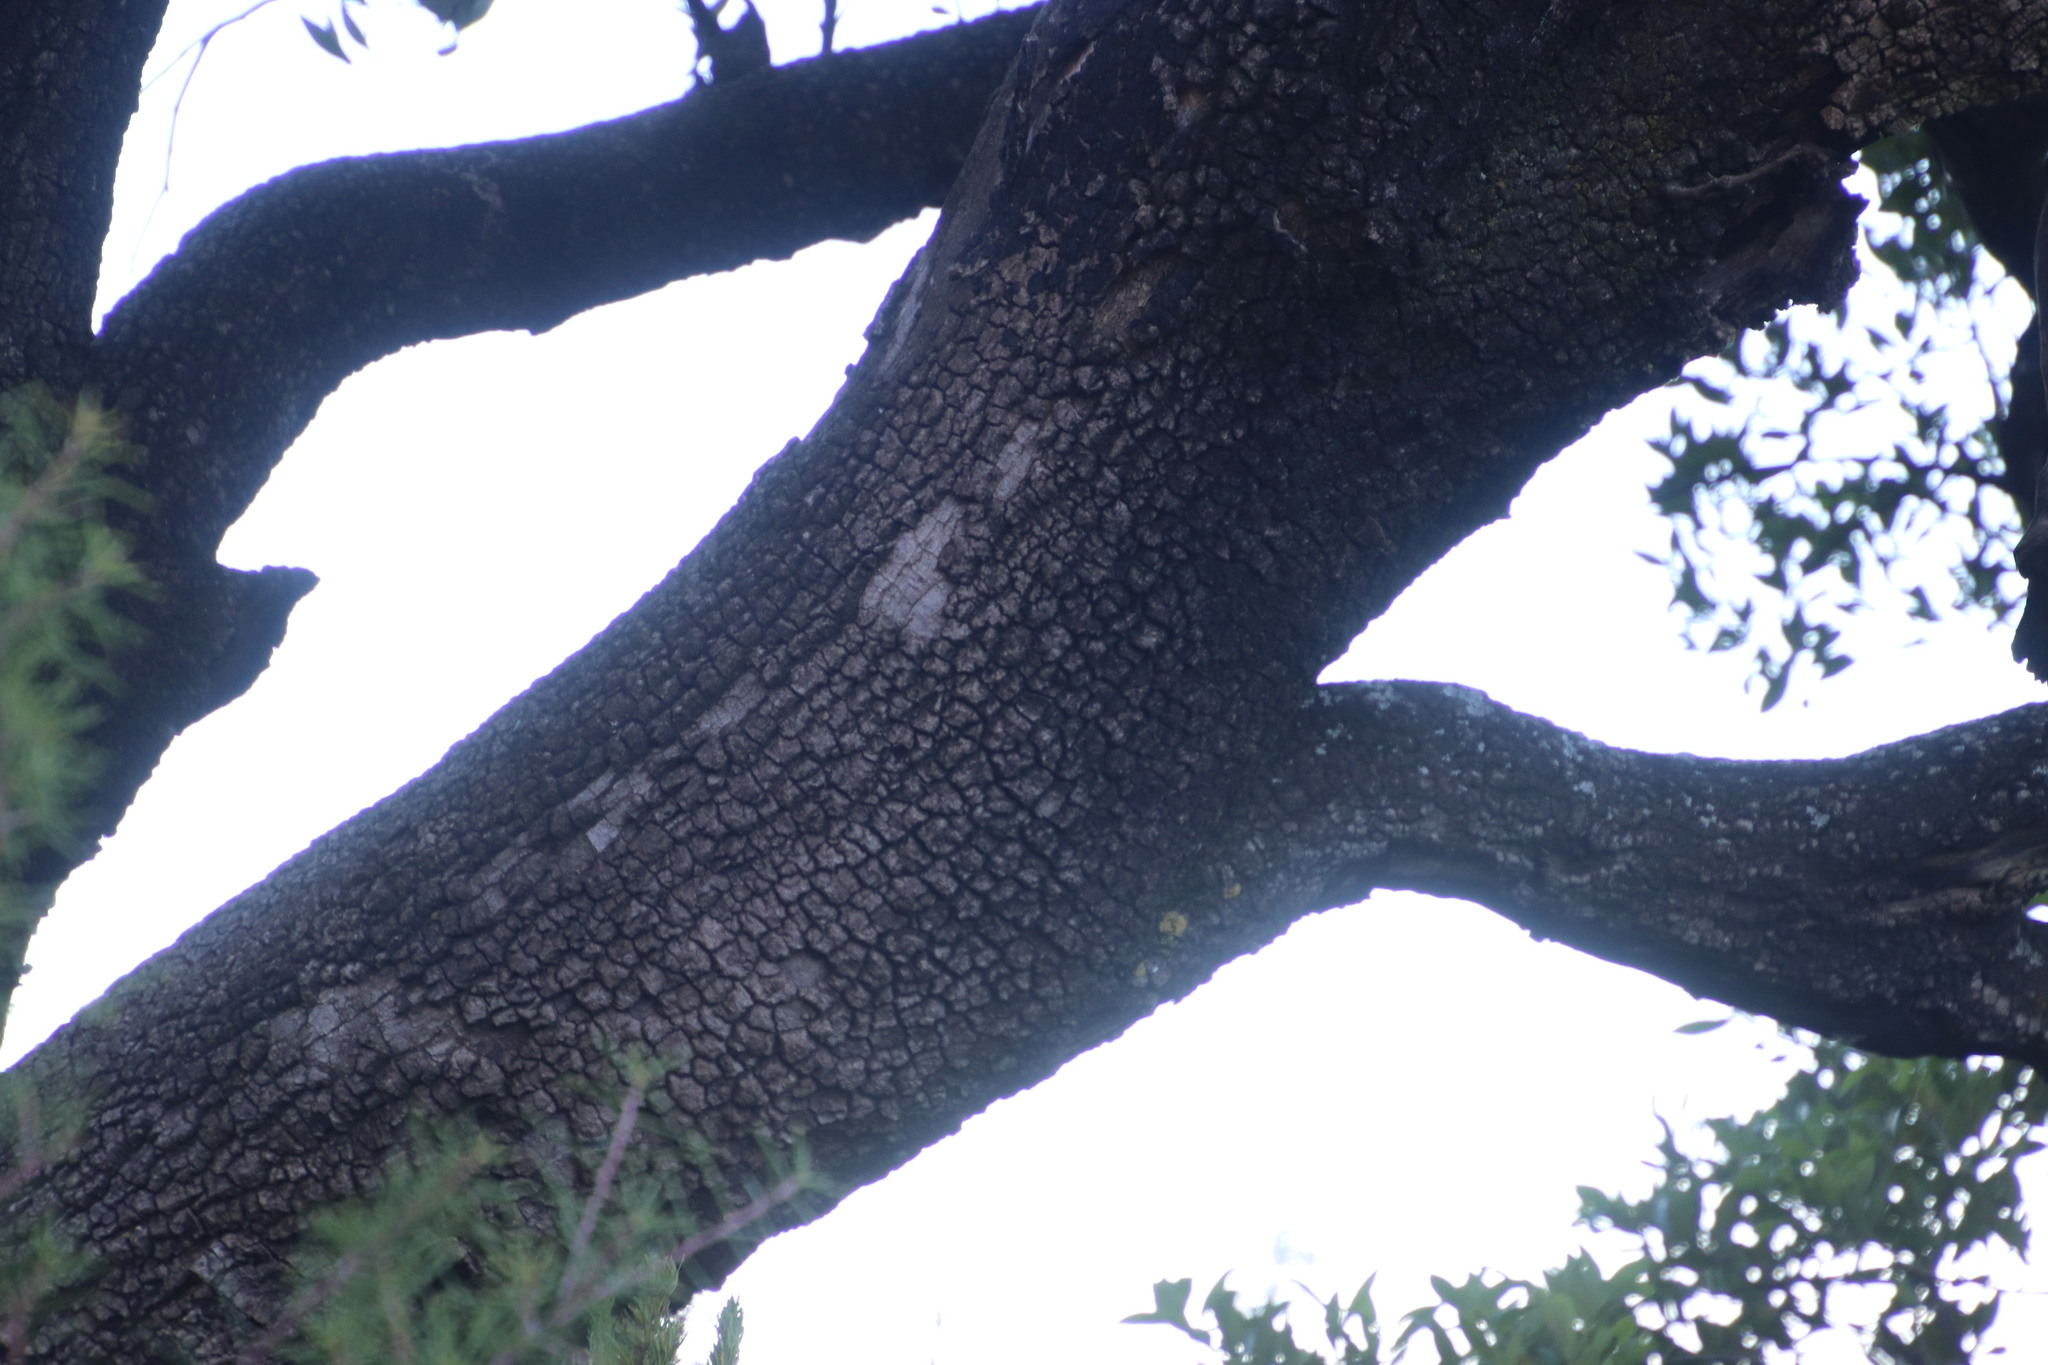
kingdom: Plantae
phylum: Tracheophyta
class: Magnoliopsida
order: Celastrales
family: Celastraceae
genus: Gymnosporia
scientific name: Gymnosporia laurina
